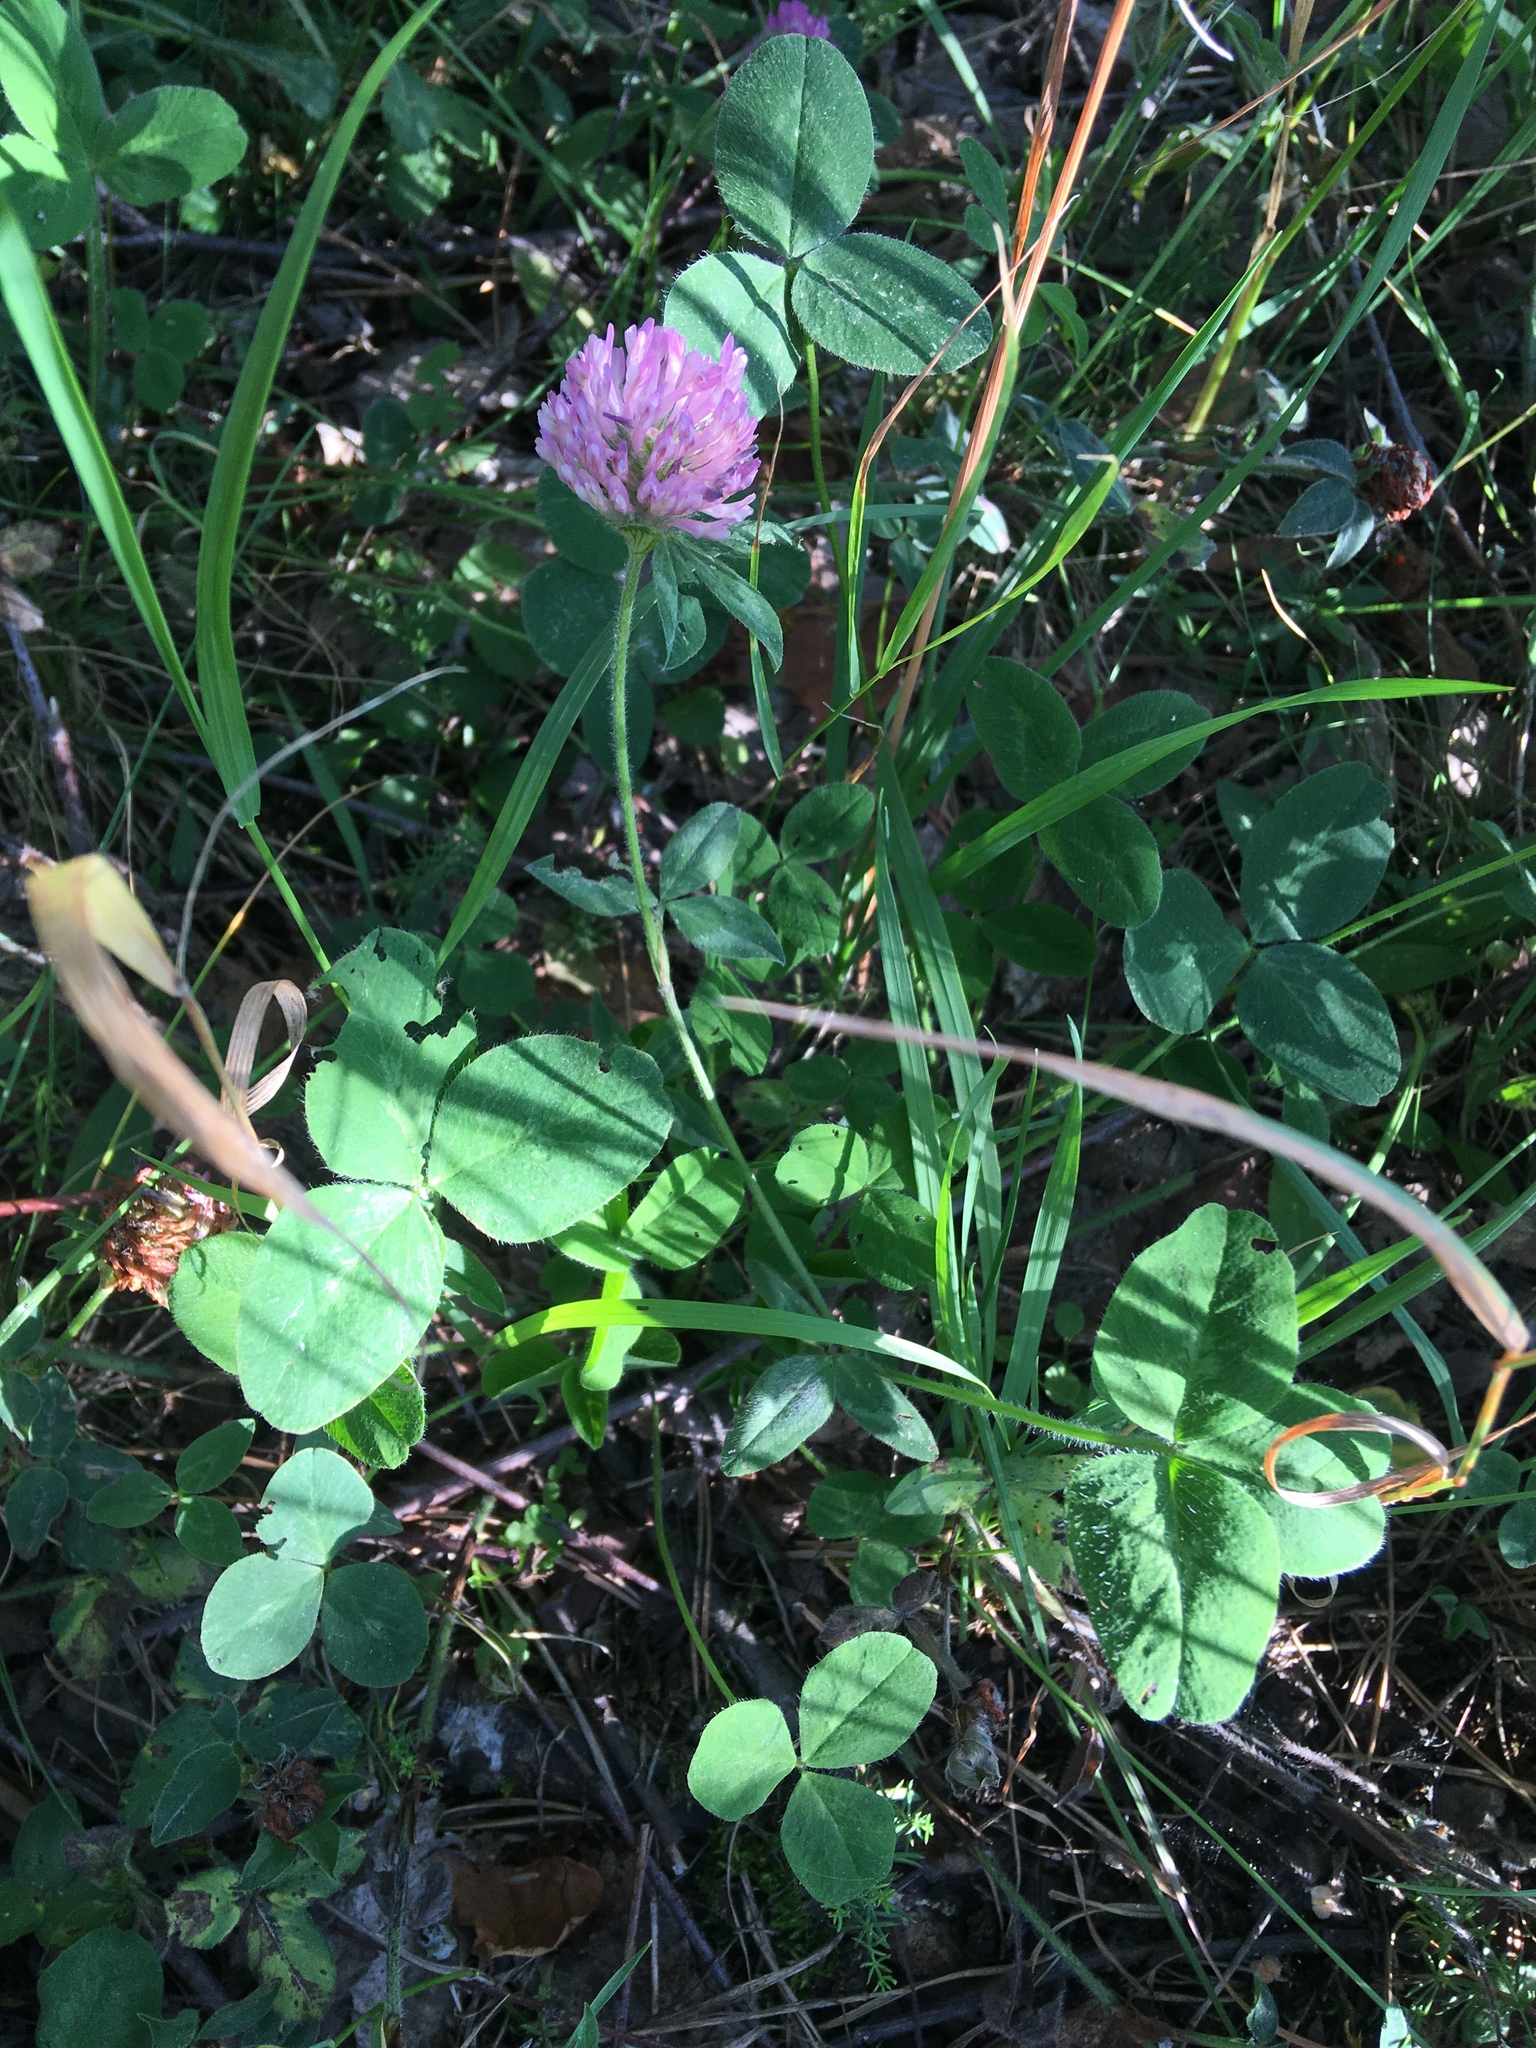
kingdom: Plantae
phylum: Tracheophyta
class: Magnoliopsida
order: Fabales
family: Fabaceae
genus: Trifolium
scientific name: Trifolium pratense
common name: Red clover
